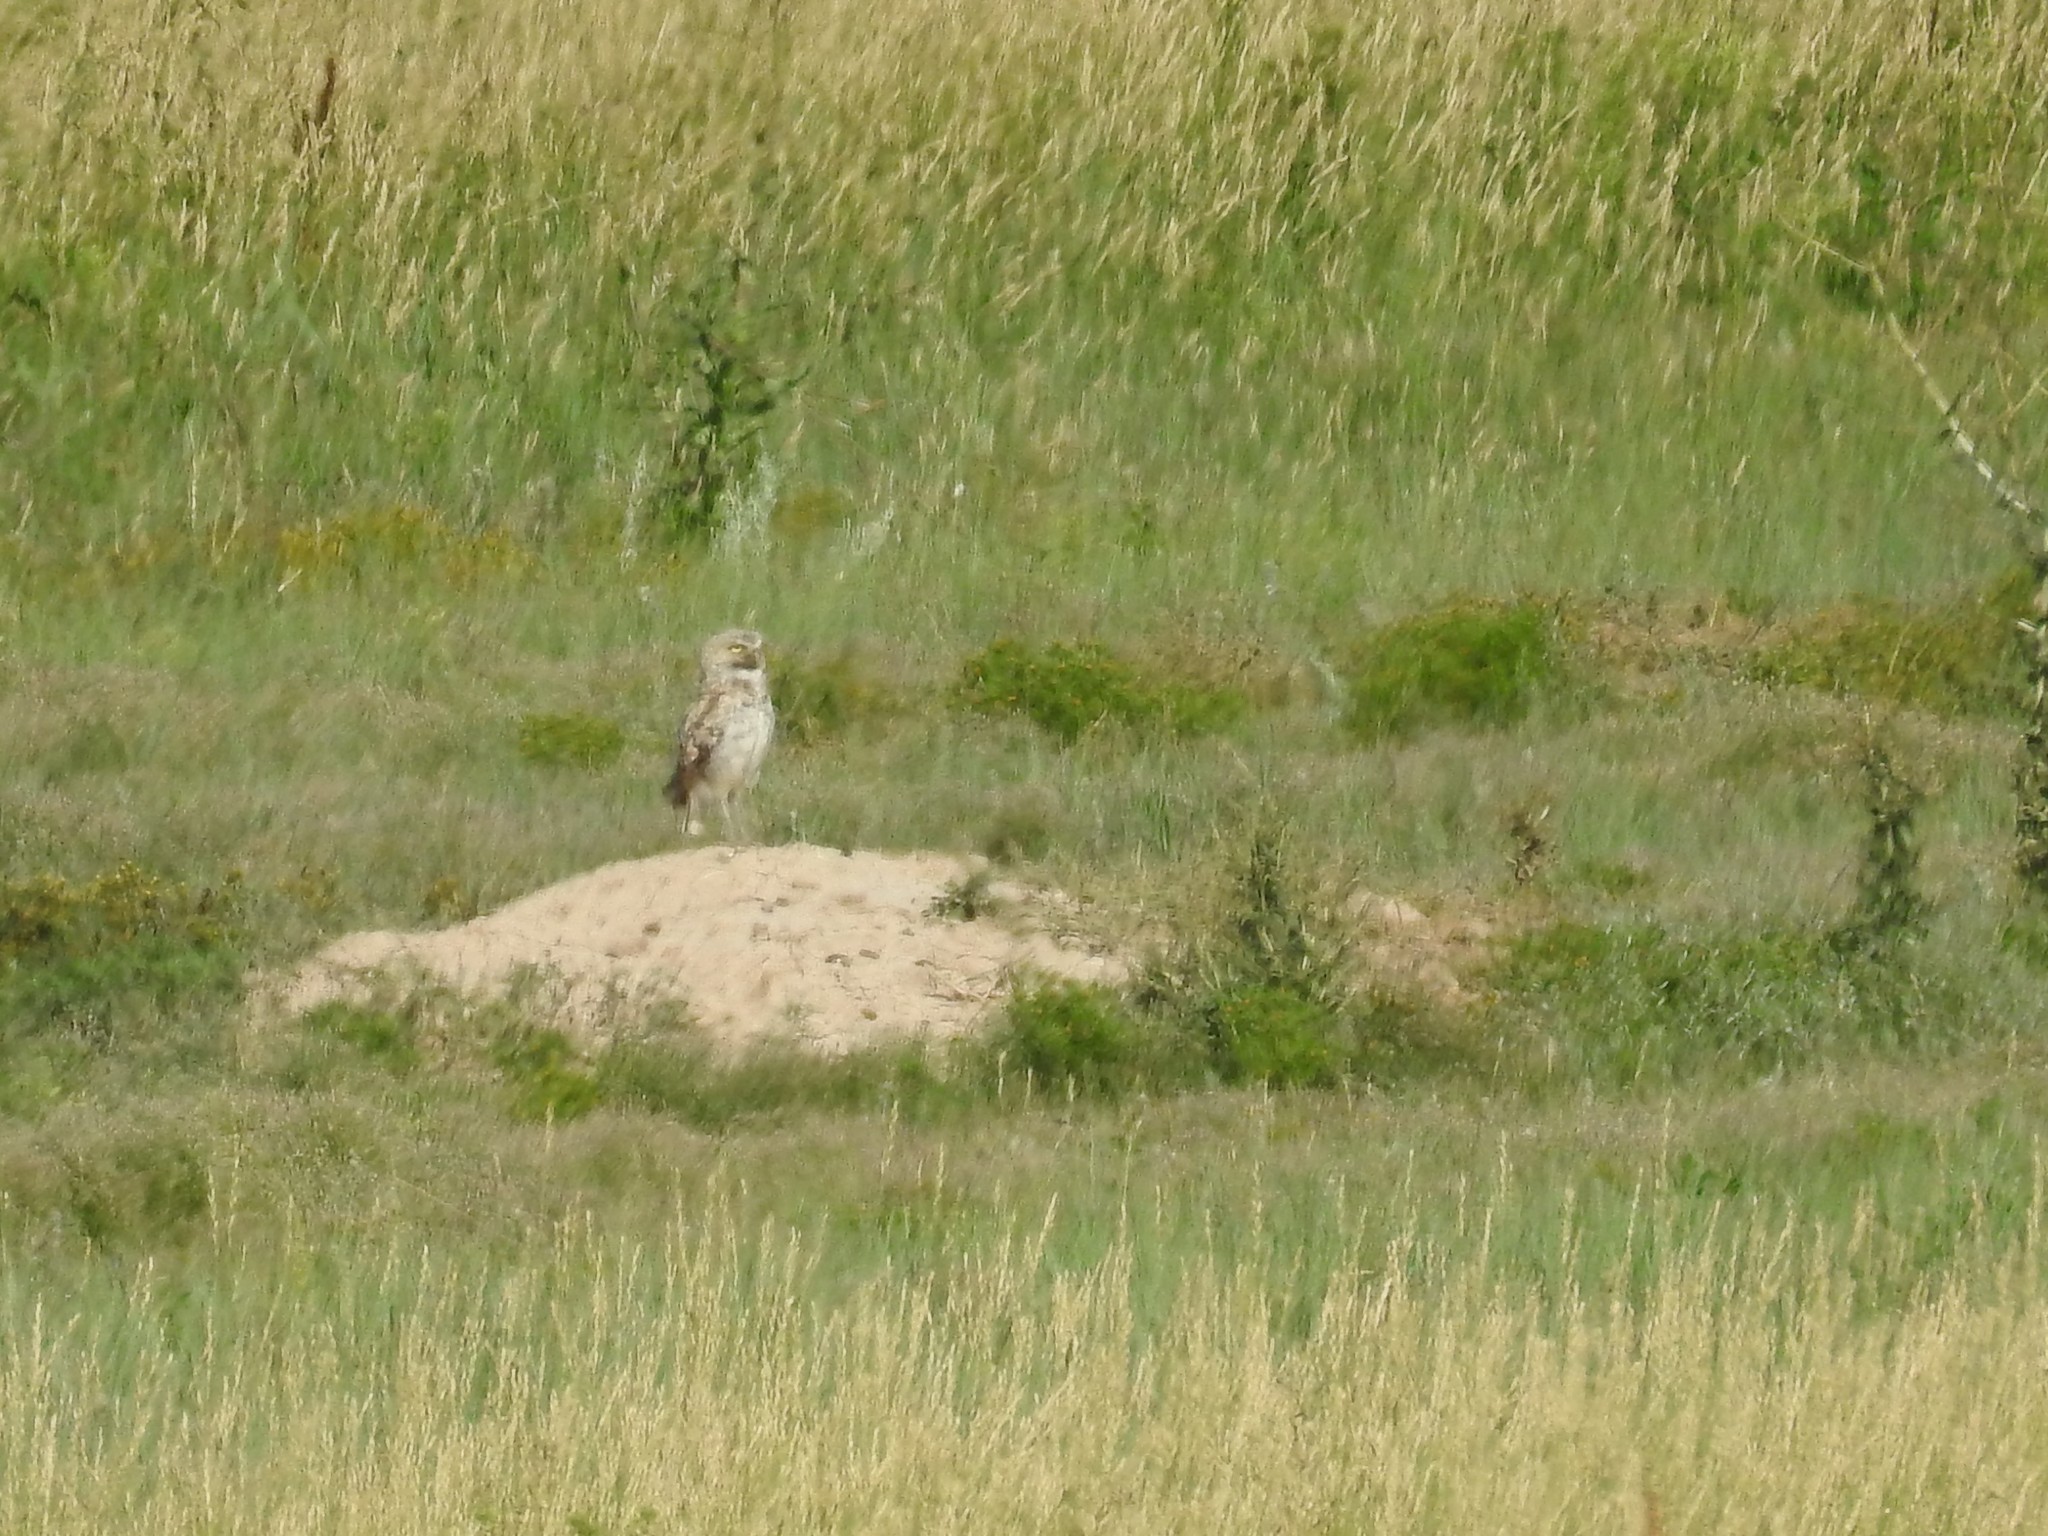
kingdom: Animalia
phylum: Chordata
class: Aves
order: Strigiformes
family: Strigidae
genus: Athene
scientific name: Athene cunicularia
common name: Burrowing owl
